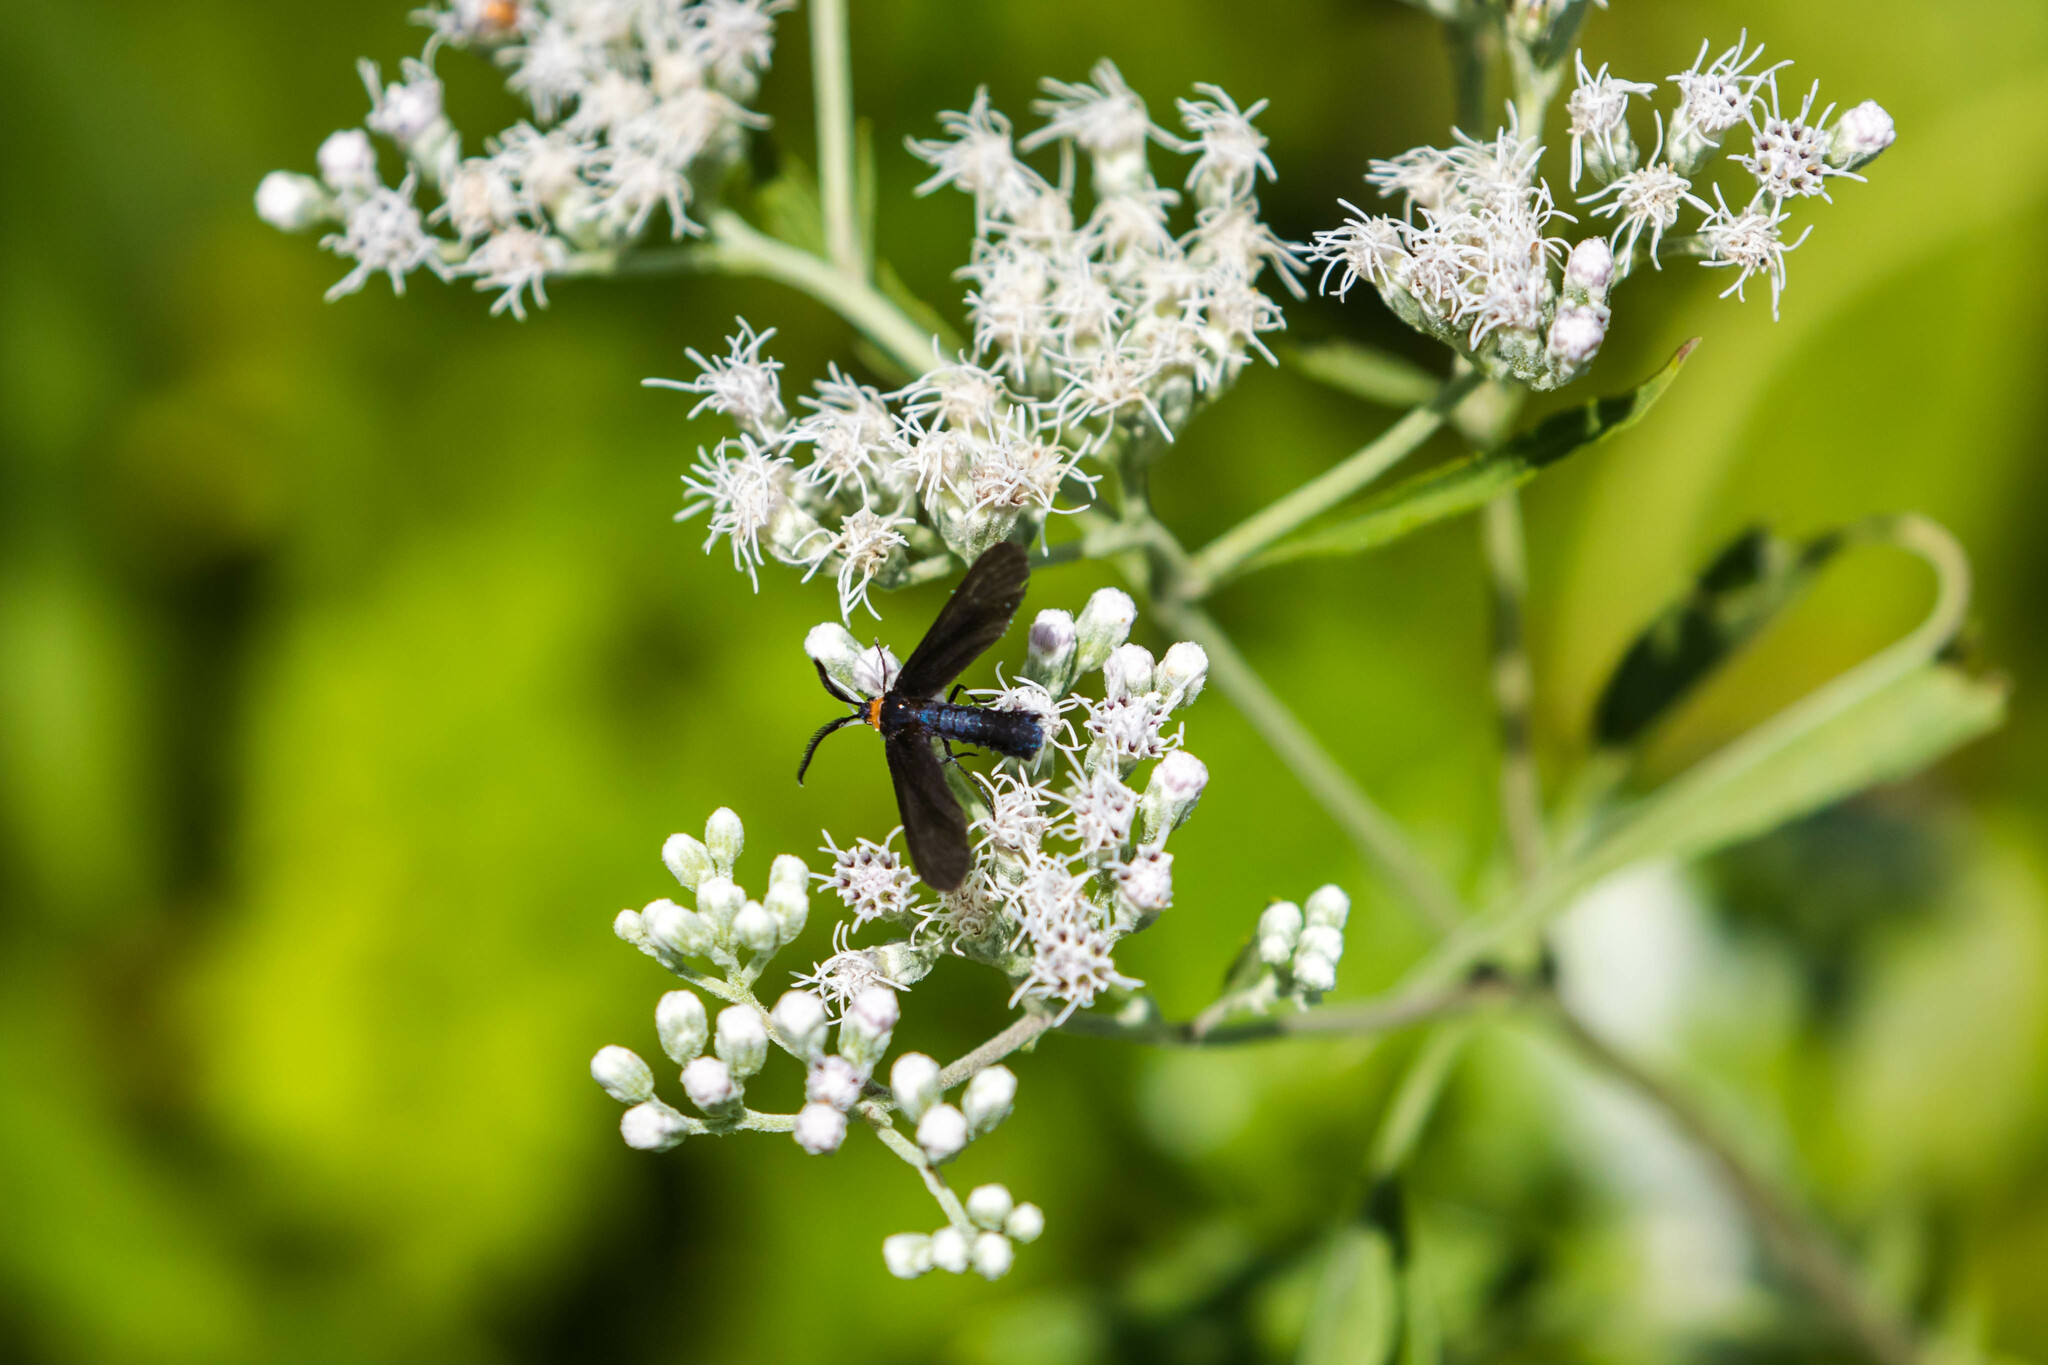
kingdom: Animalia
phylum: Arthropoda
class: Insecta
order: Lepidoptera
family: Zygaenidae
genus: Harrisina
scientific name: Harrisina americana
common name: Grapeleaf skeletonizer moth
